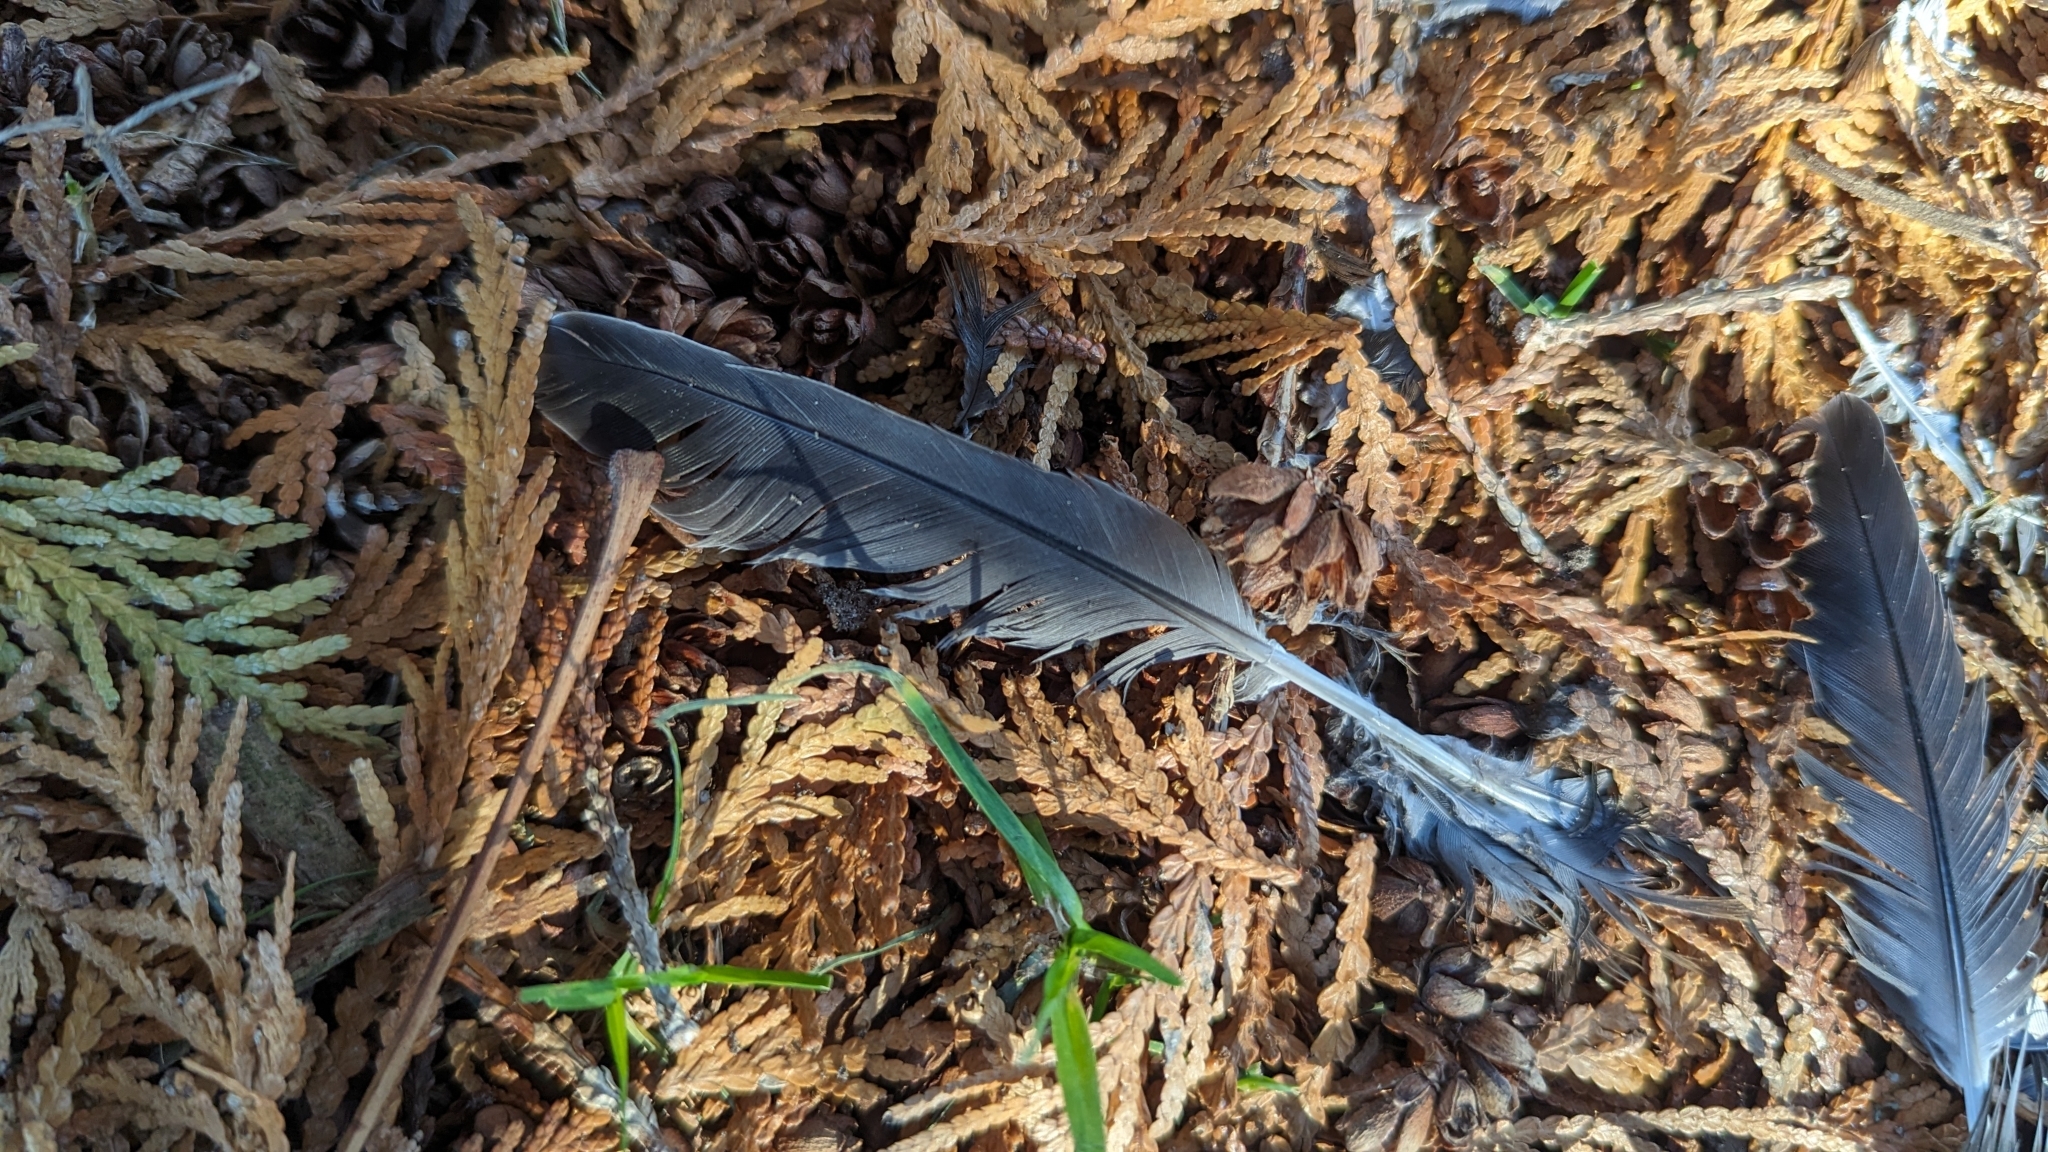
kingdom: Animalia
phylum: Chordata
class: Aves
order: Columbiformes
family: Columbidae
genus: Zenaida
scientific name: Zenaida macroura
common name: Mourning dove
